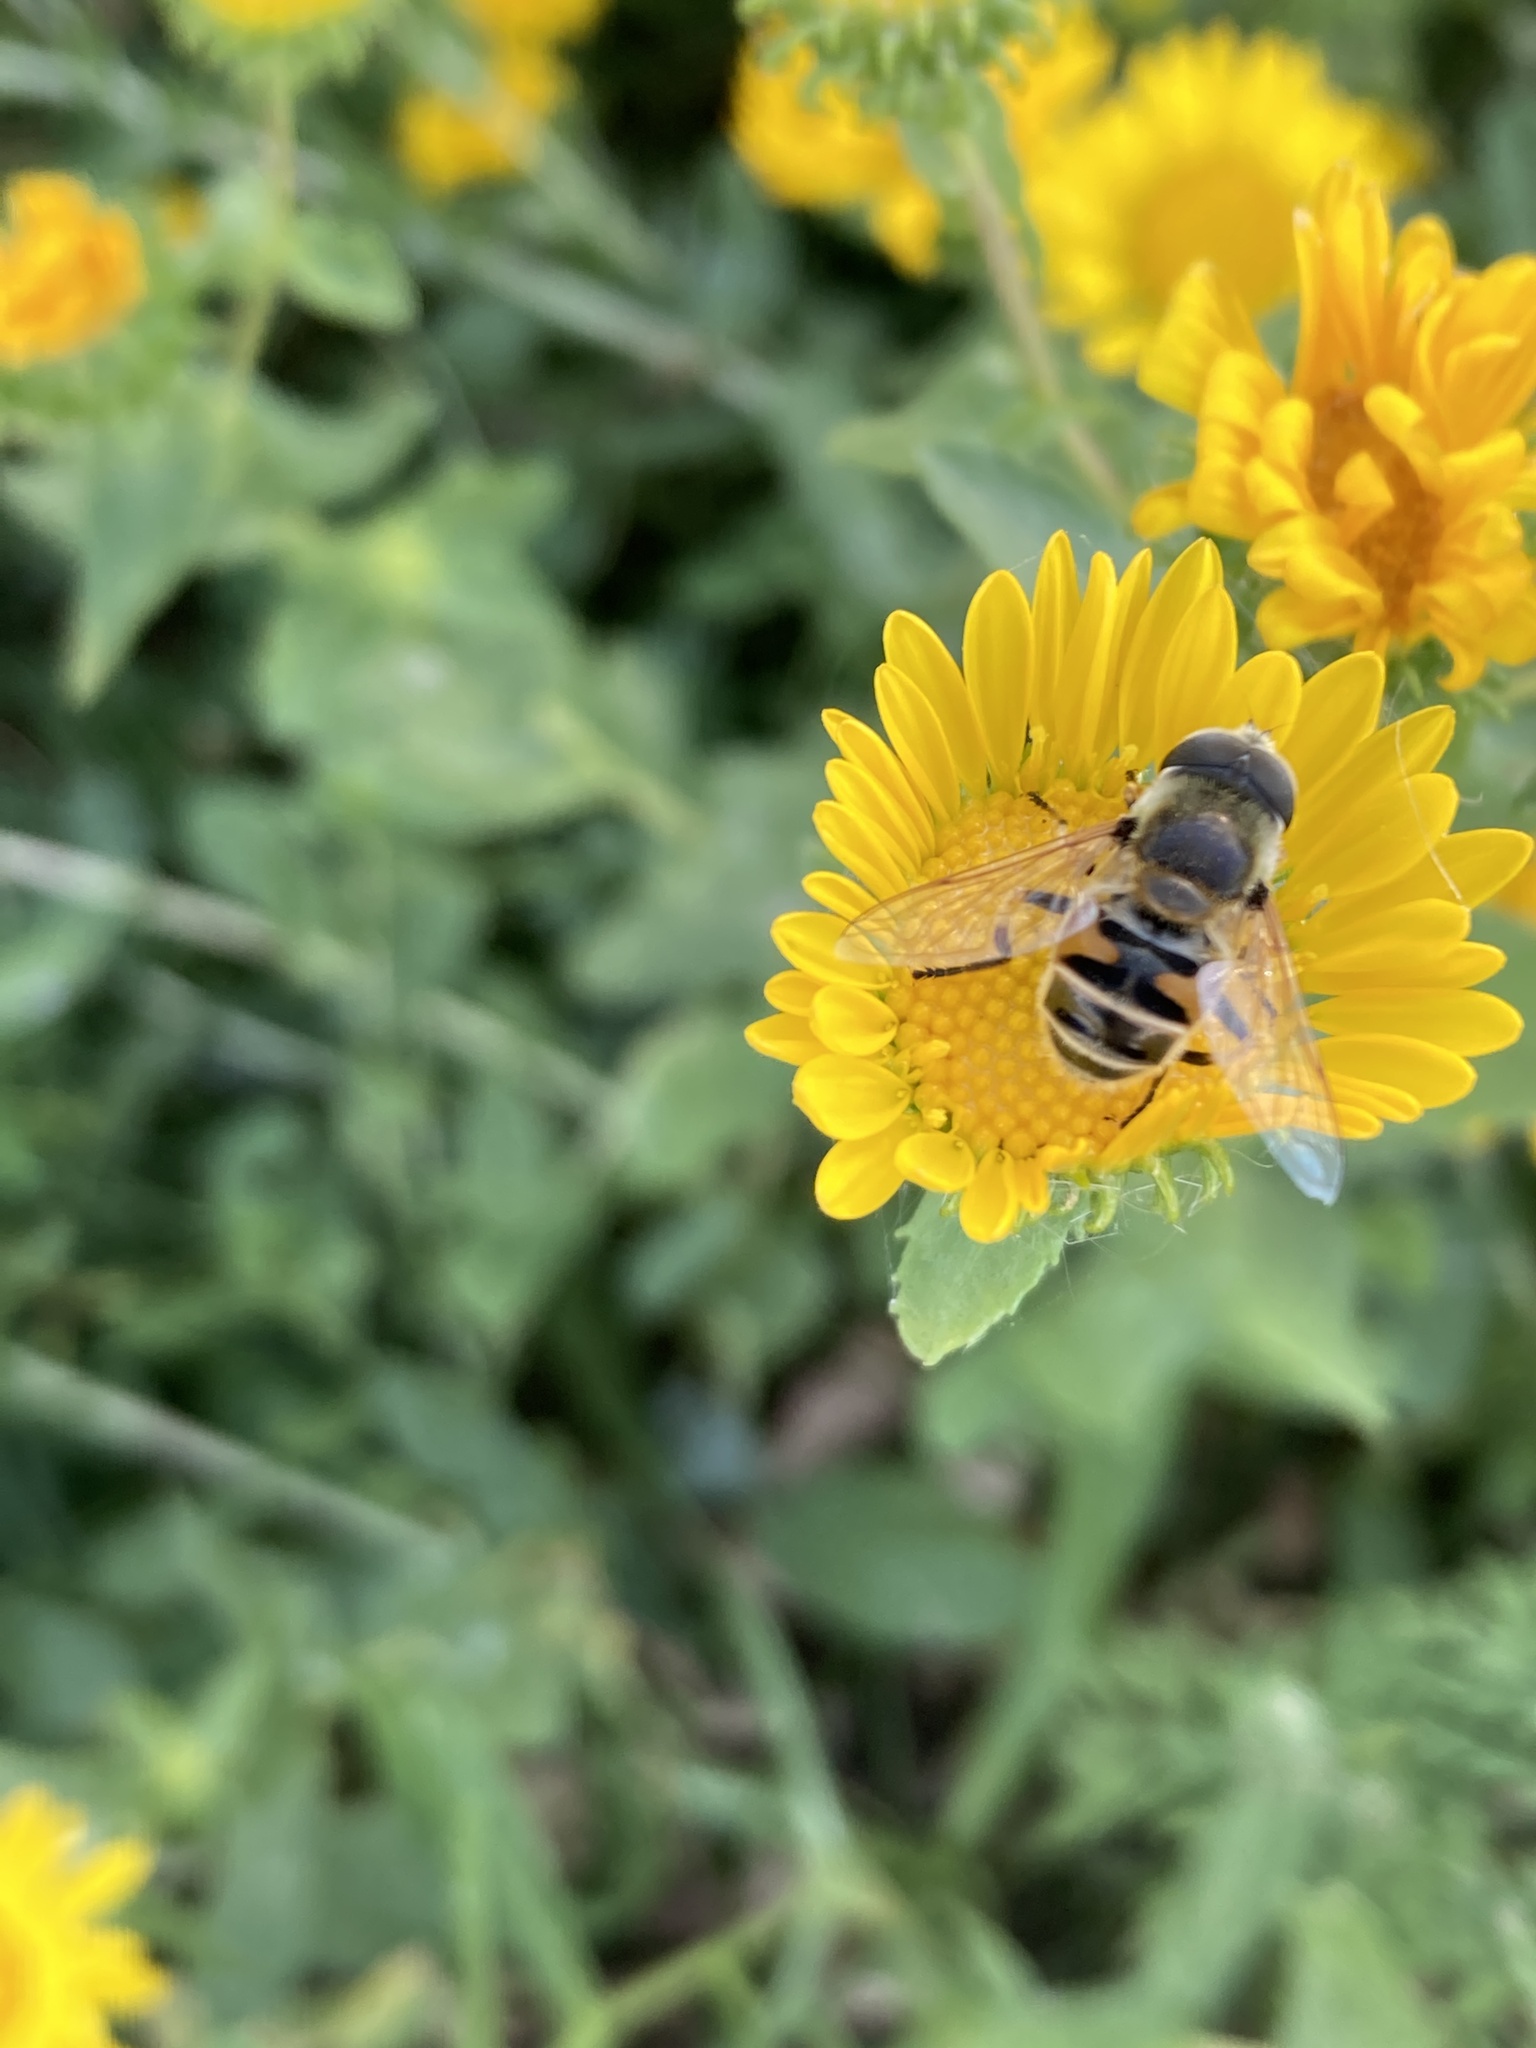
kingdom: Animalia
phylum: Arthropoda
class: Insecta
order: Diptera
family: Syrphidae
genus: Eristalis
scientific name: Eristalis stipator
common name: Yellow-shouldered drone fly
